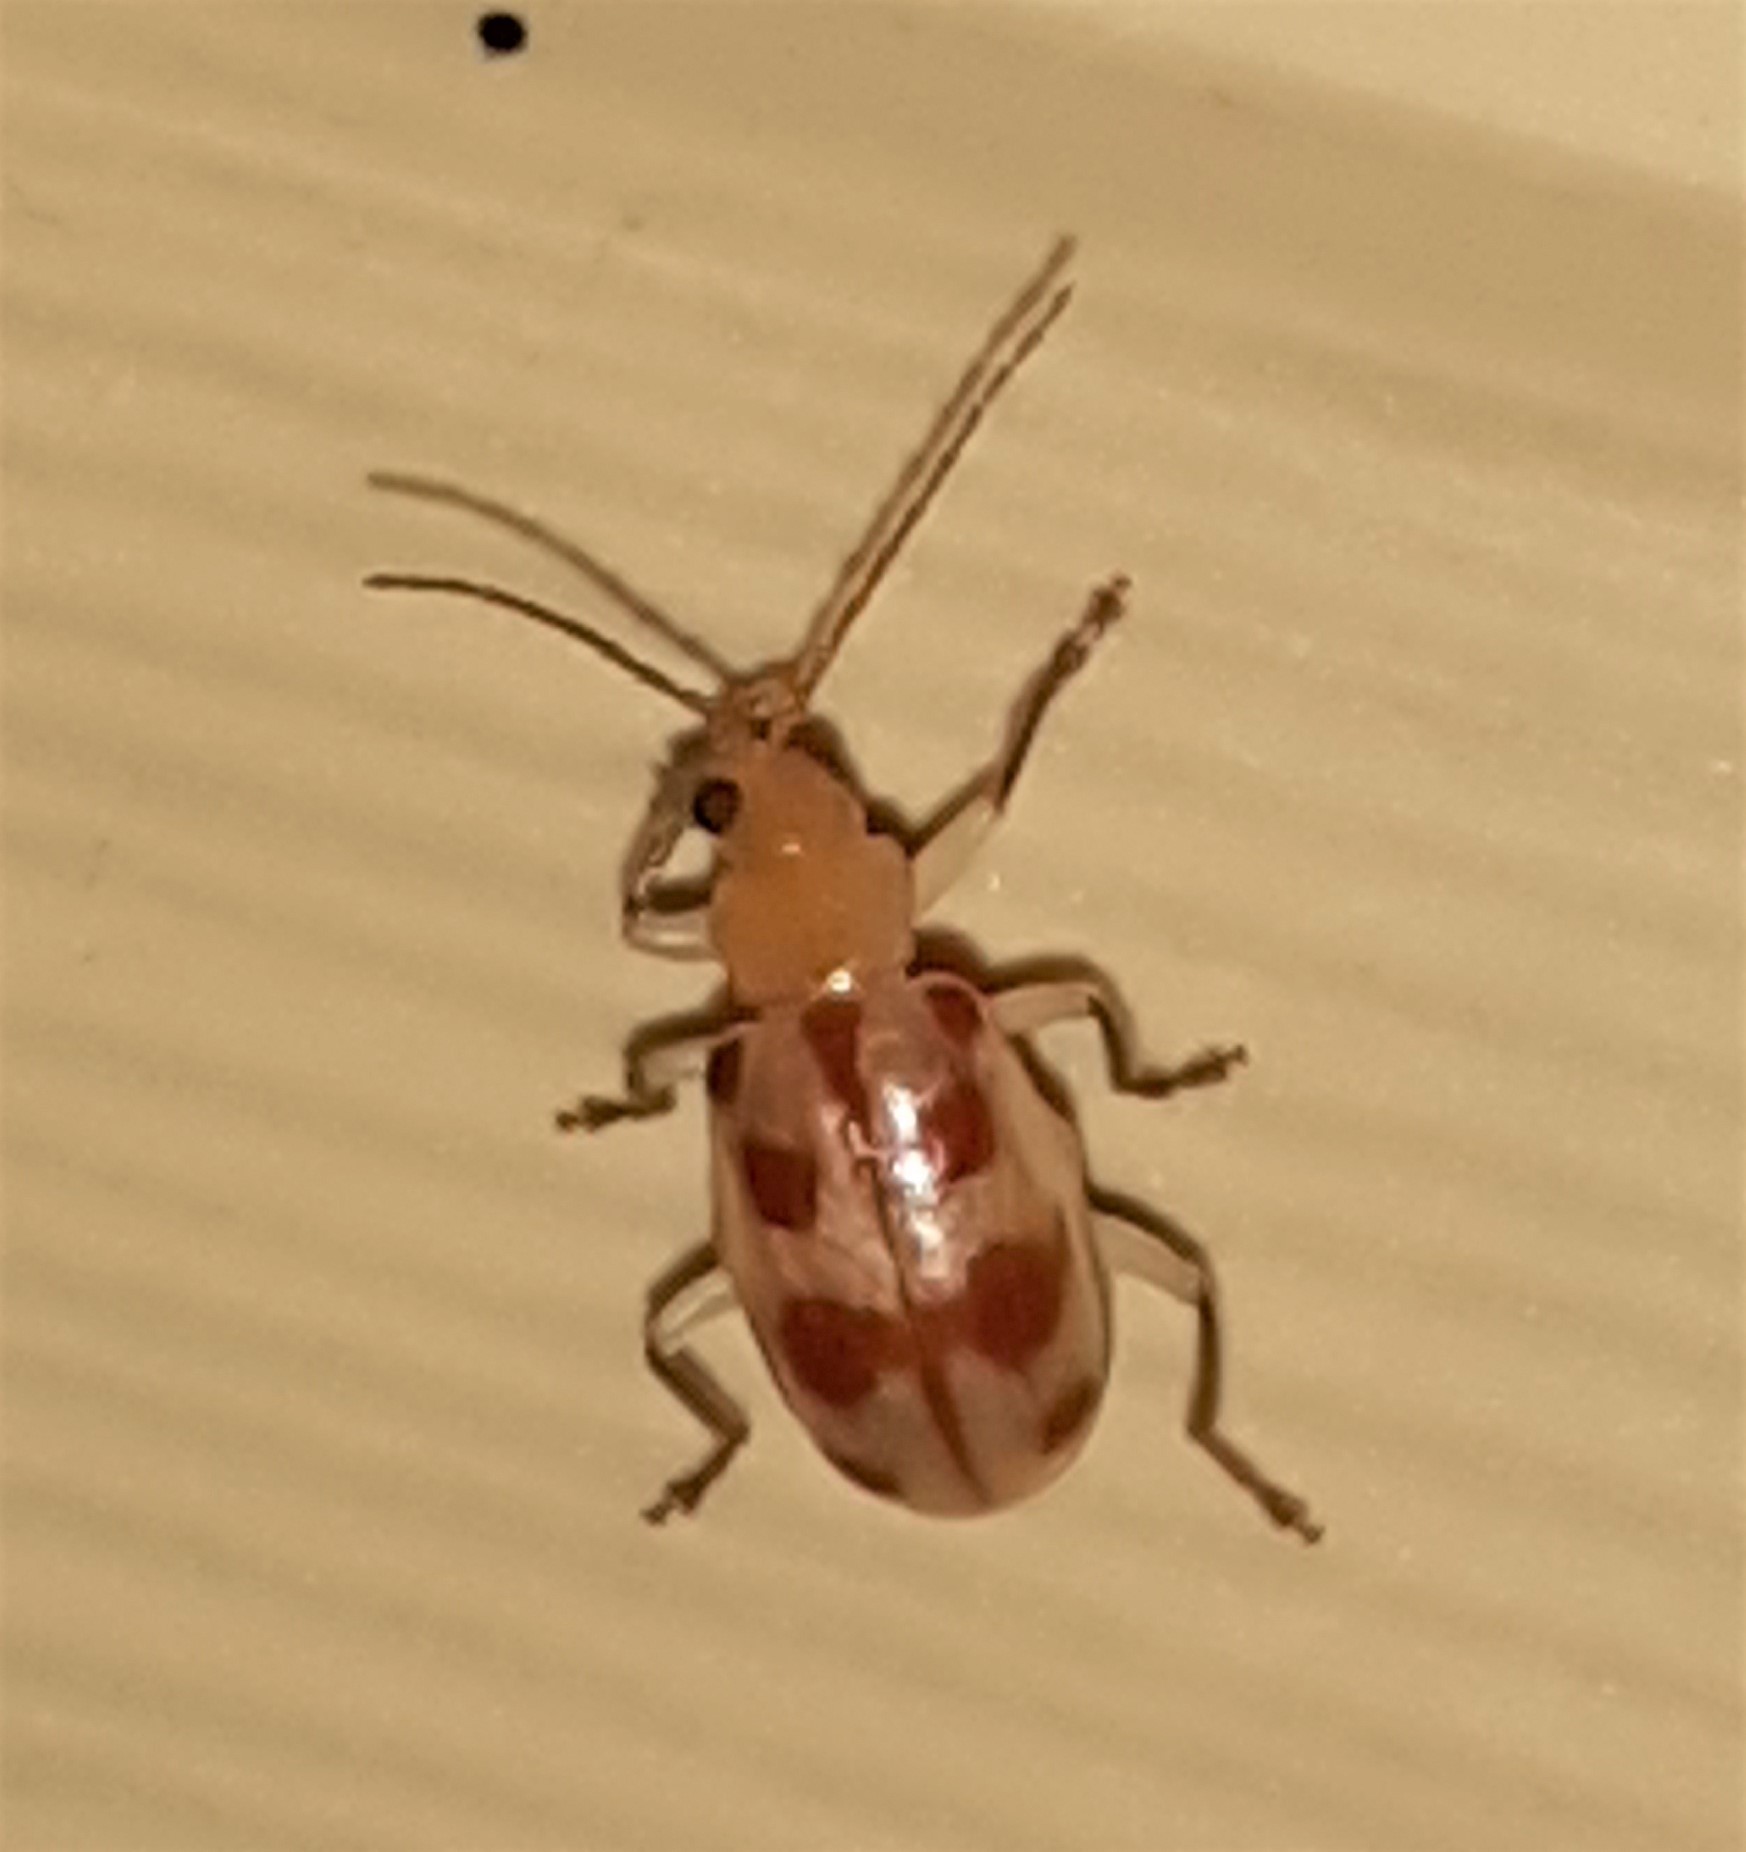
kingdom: Animalia
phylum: Arthropoda
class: Insecta
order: Coleoptera
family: Chrysomelidae
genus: Malacorhinus
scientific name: Malacorhinus
